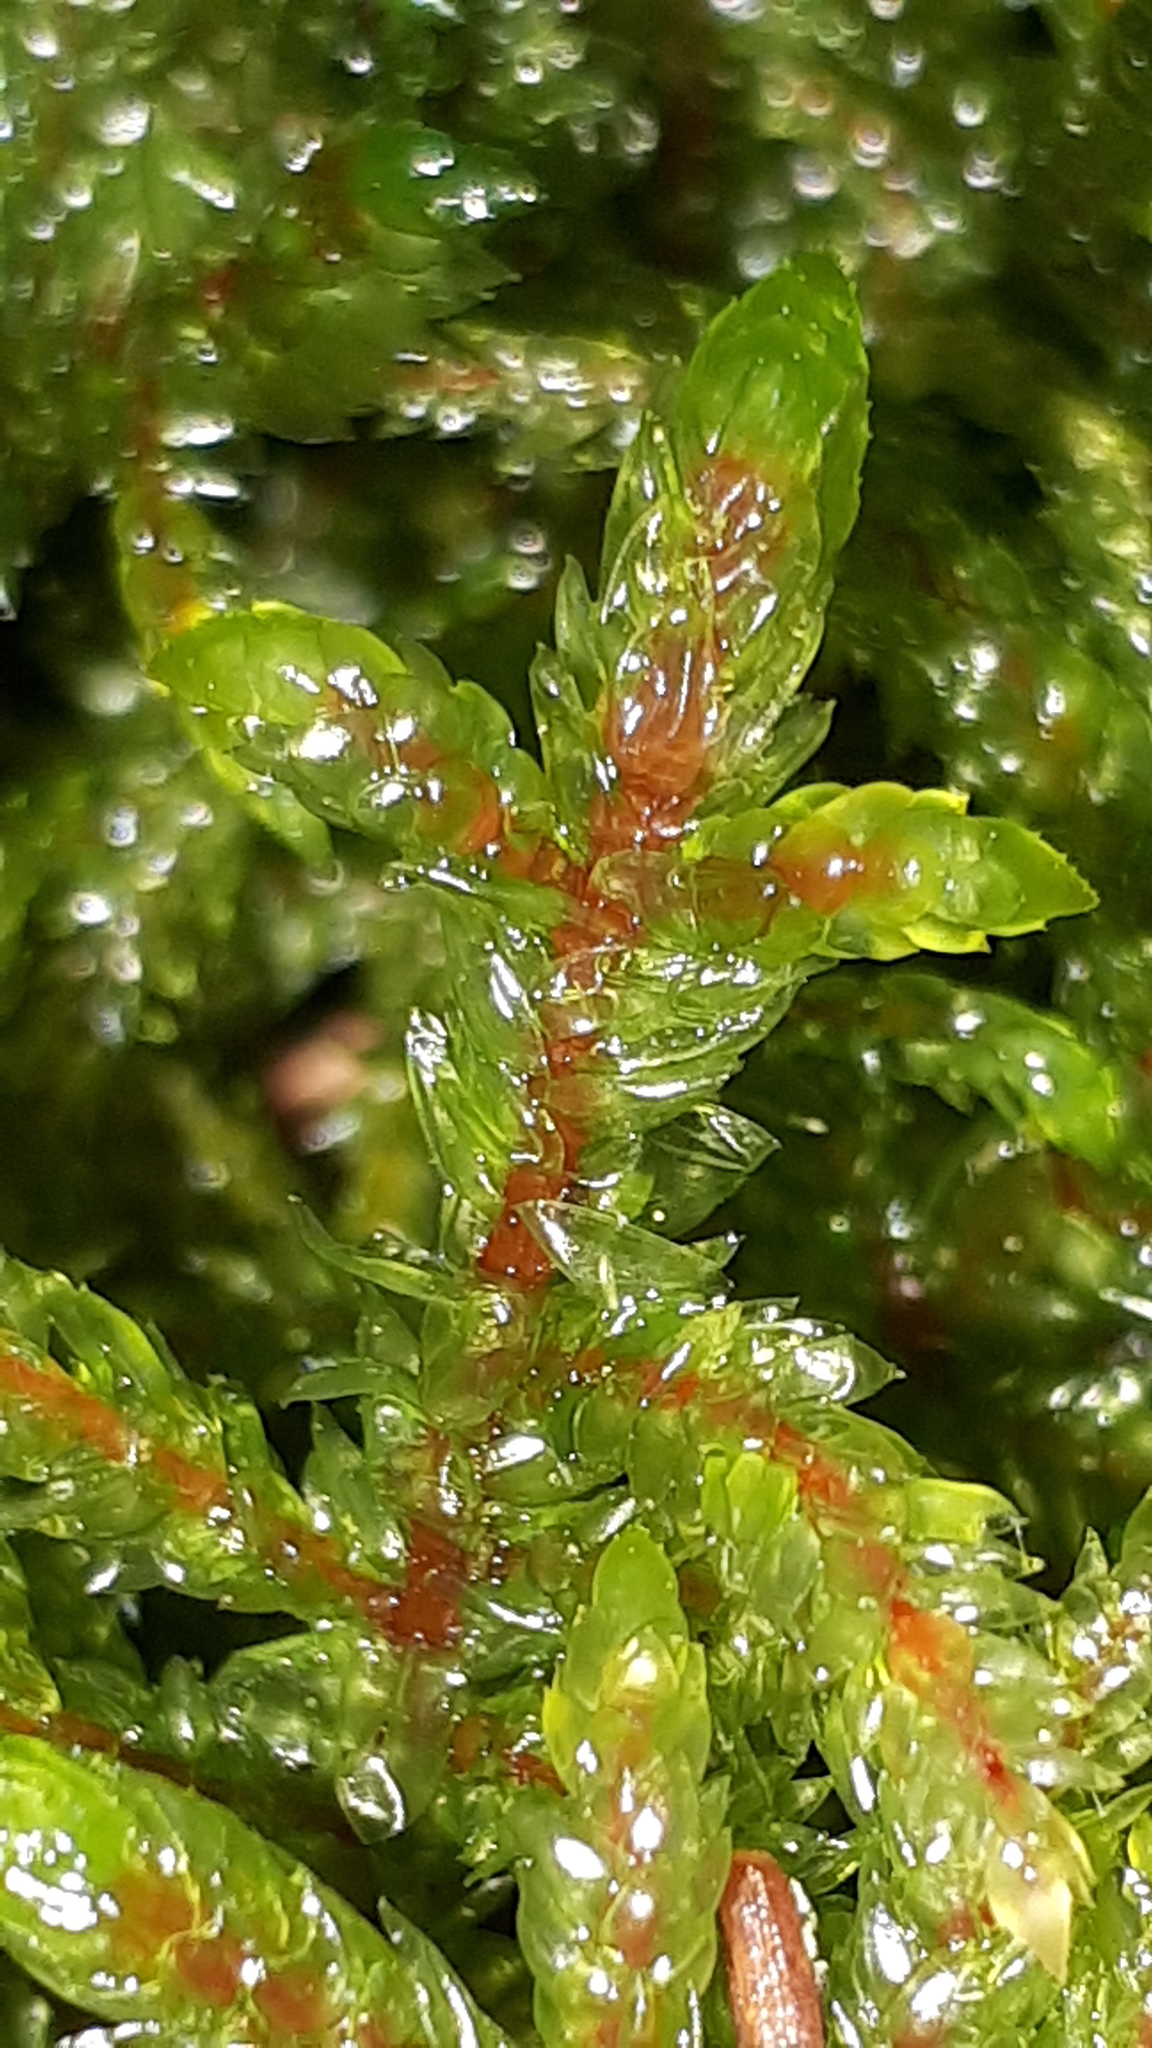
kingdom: Plantae
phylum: Bryophyta
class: Bryopsida
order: Hypnales
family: Hylocomiaceae
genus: Pleurozium
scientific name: Pleurozium schreberi
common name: Red-stemmed feather moss
